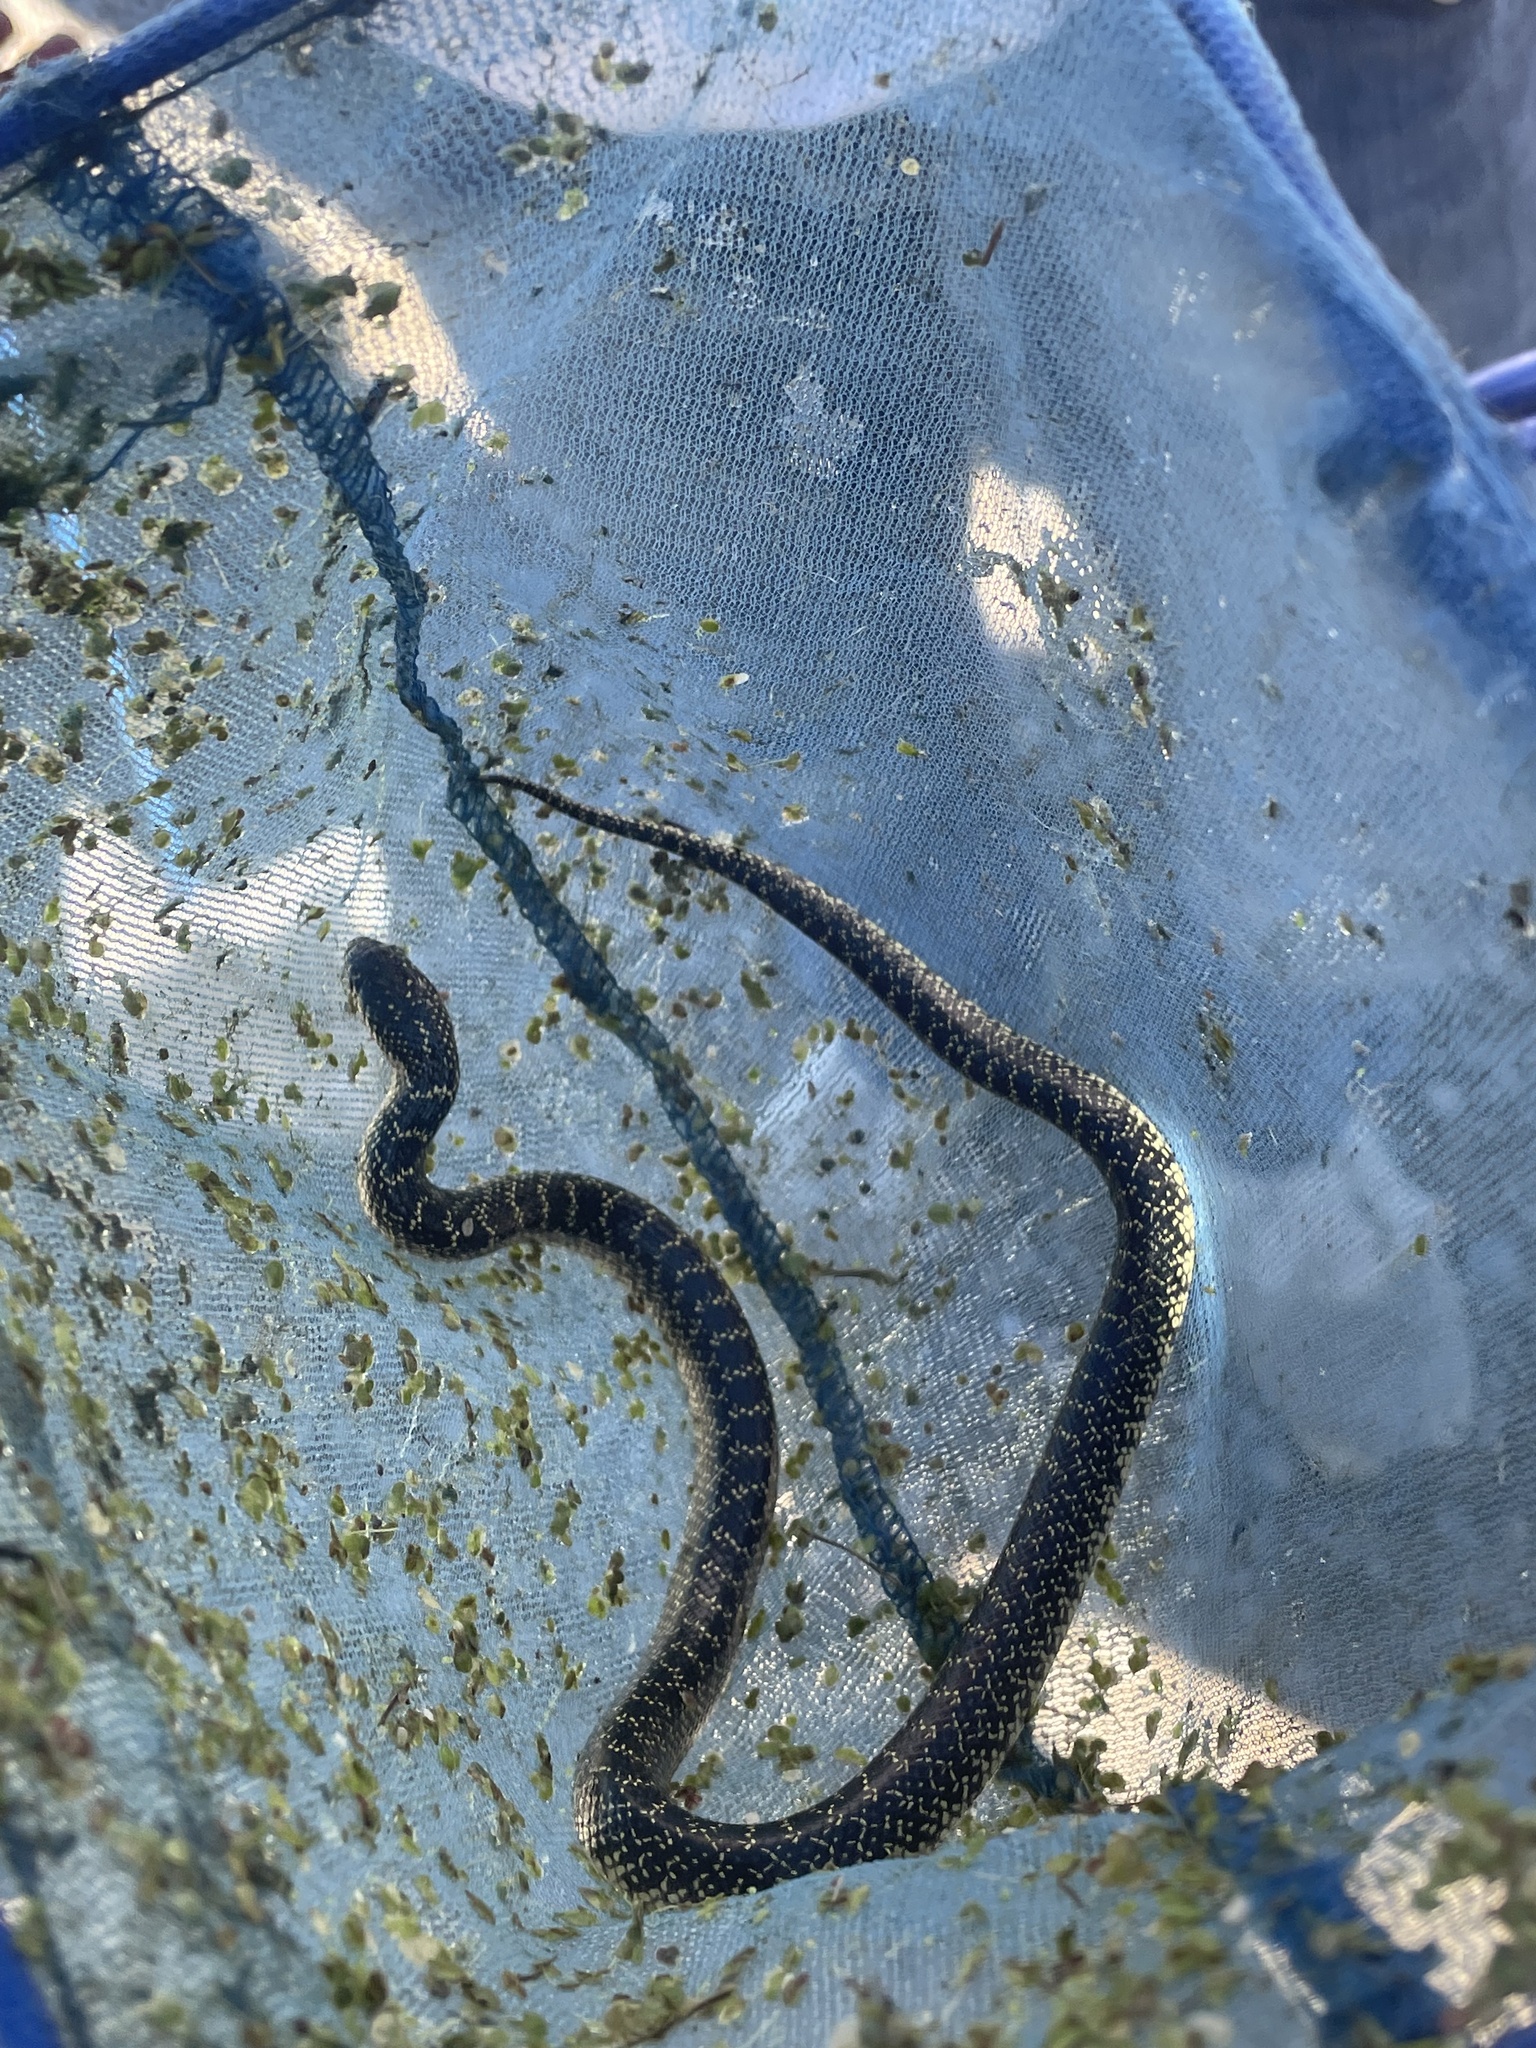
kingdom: Animalia
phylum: Chordata
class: Squamata
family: Colubridae
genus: Lampropeltis
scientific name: Lampropeltis holbrooki
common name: Speckled kingsnake
